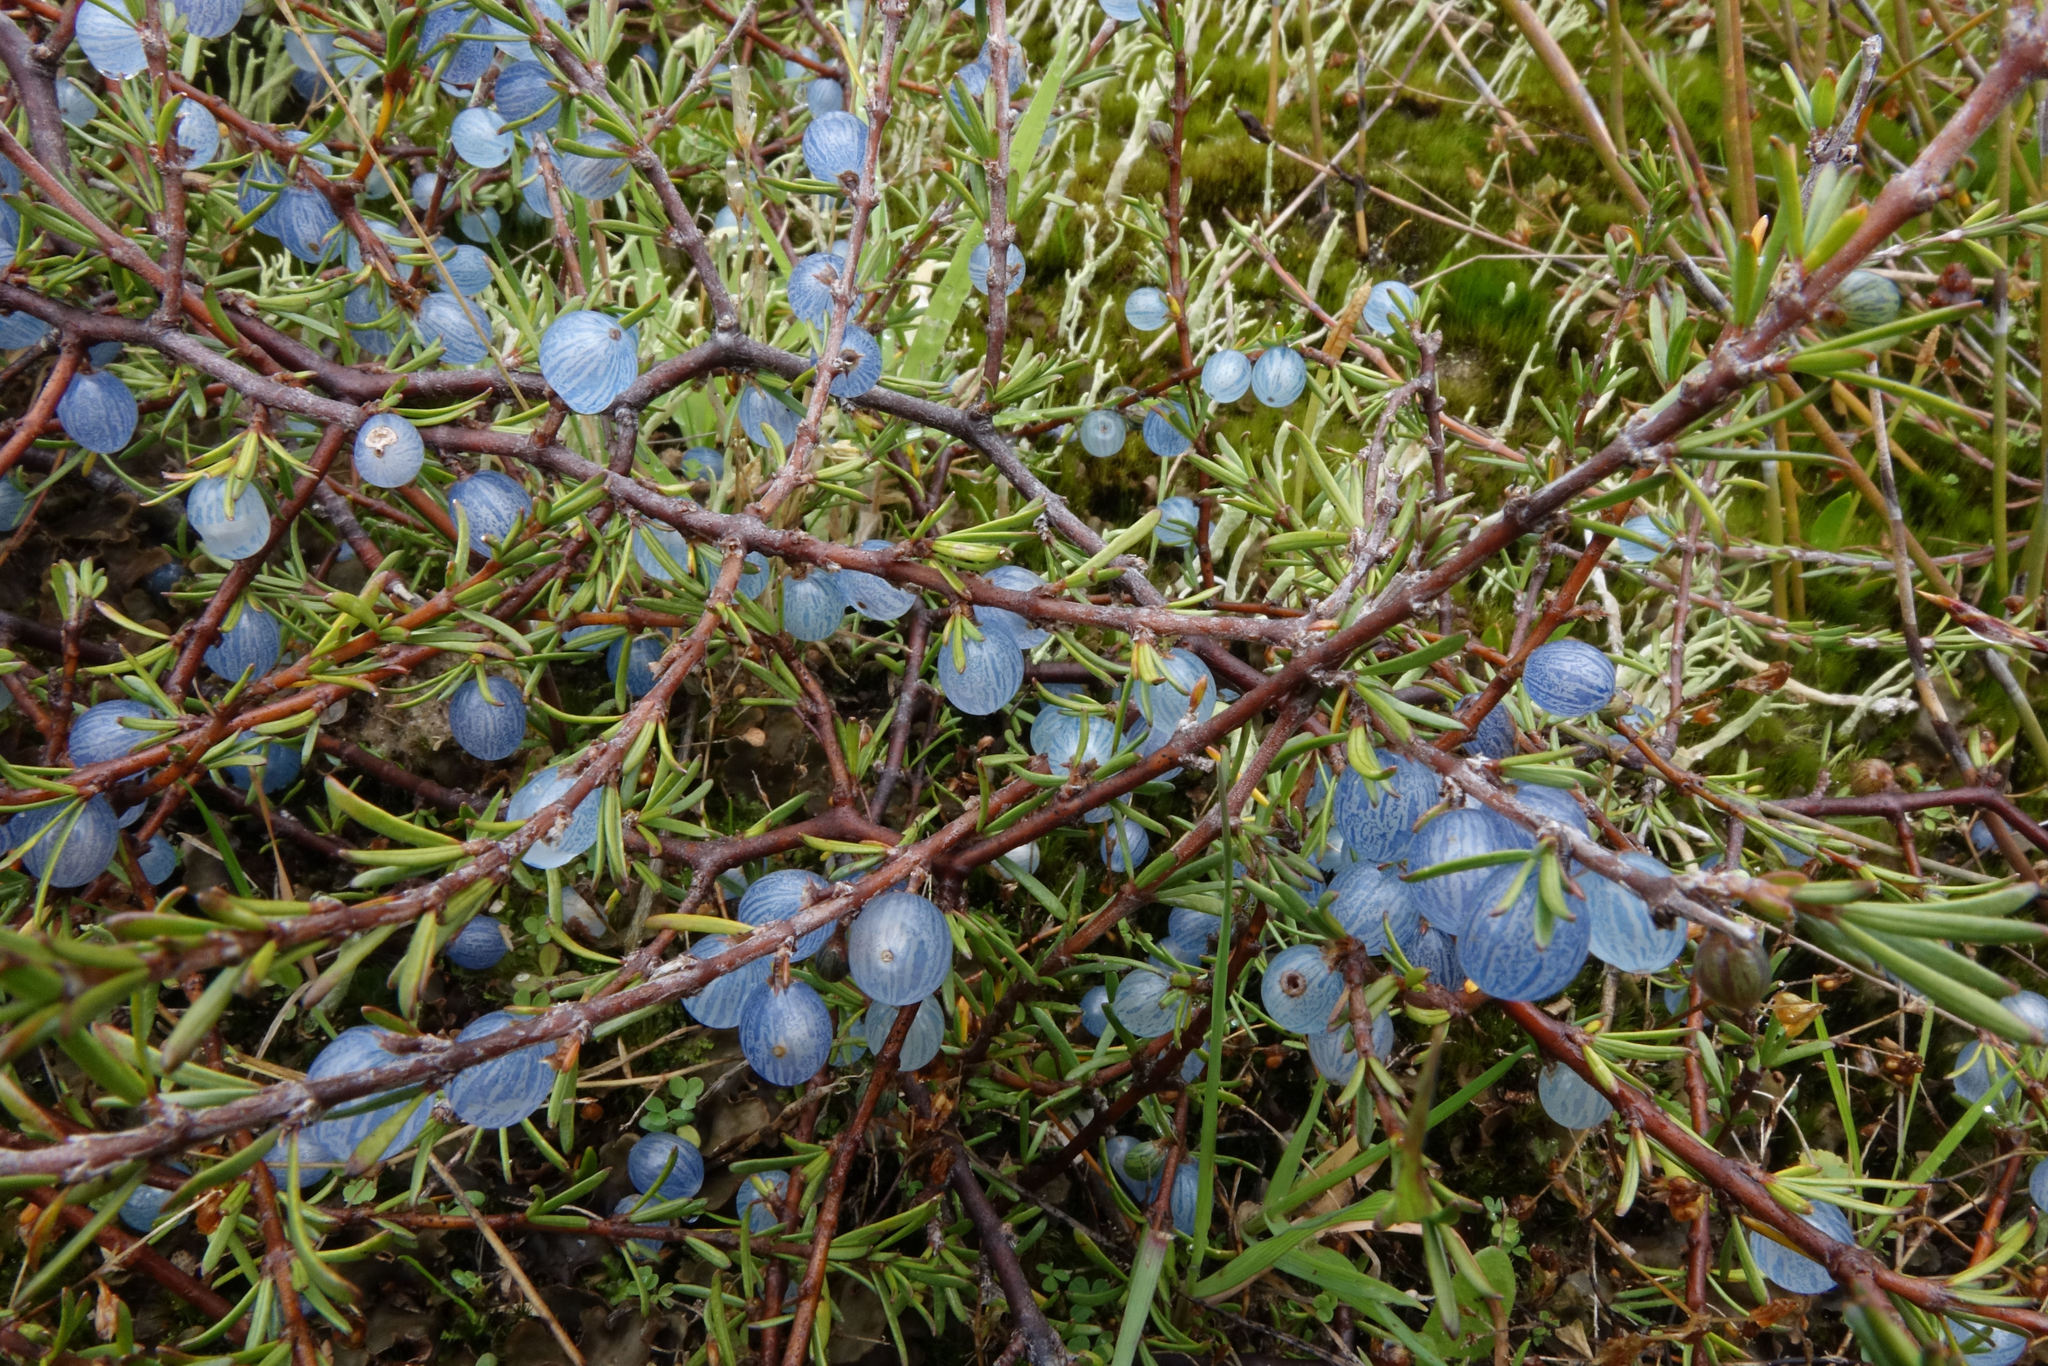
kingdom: Plantae
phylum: Tracheophyta
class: Magnoliopsida
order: Gentianales
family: Rubiaceae
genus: Coprosma
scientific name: Coprosma acerosa
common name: Sand coprosma
